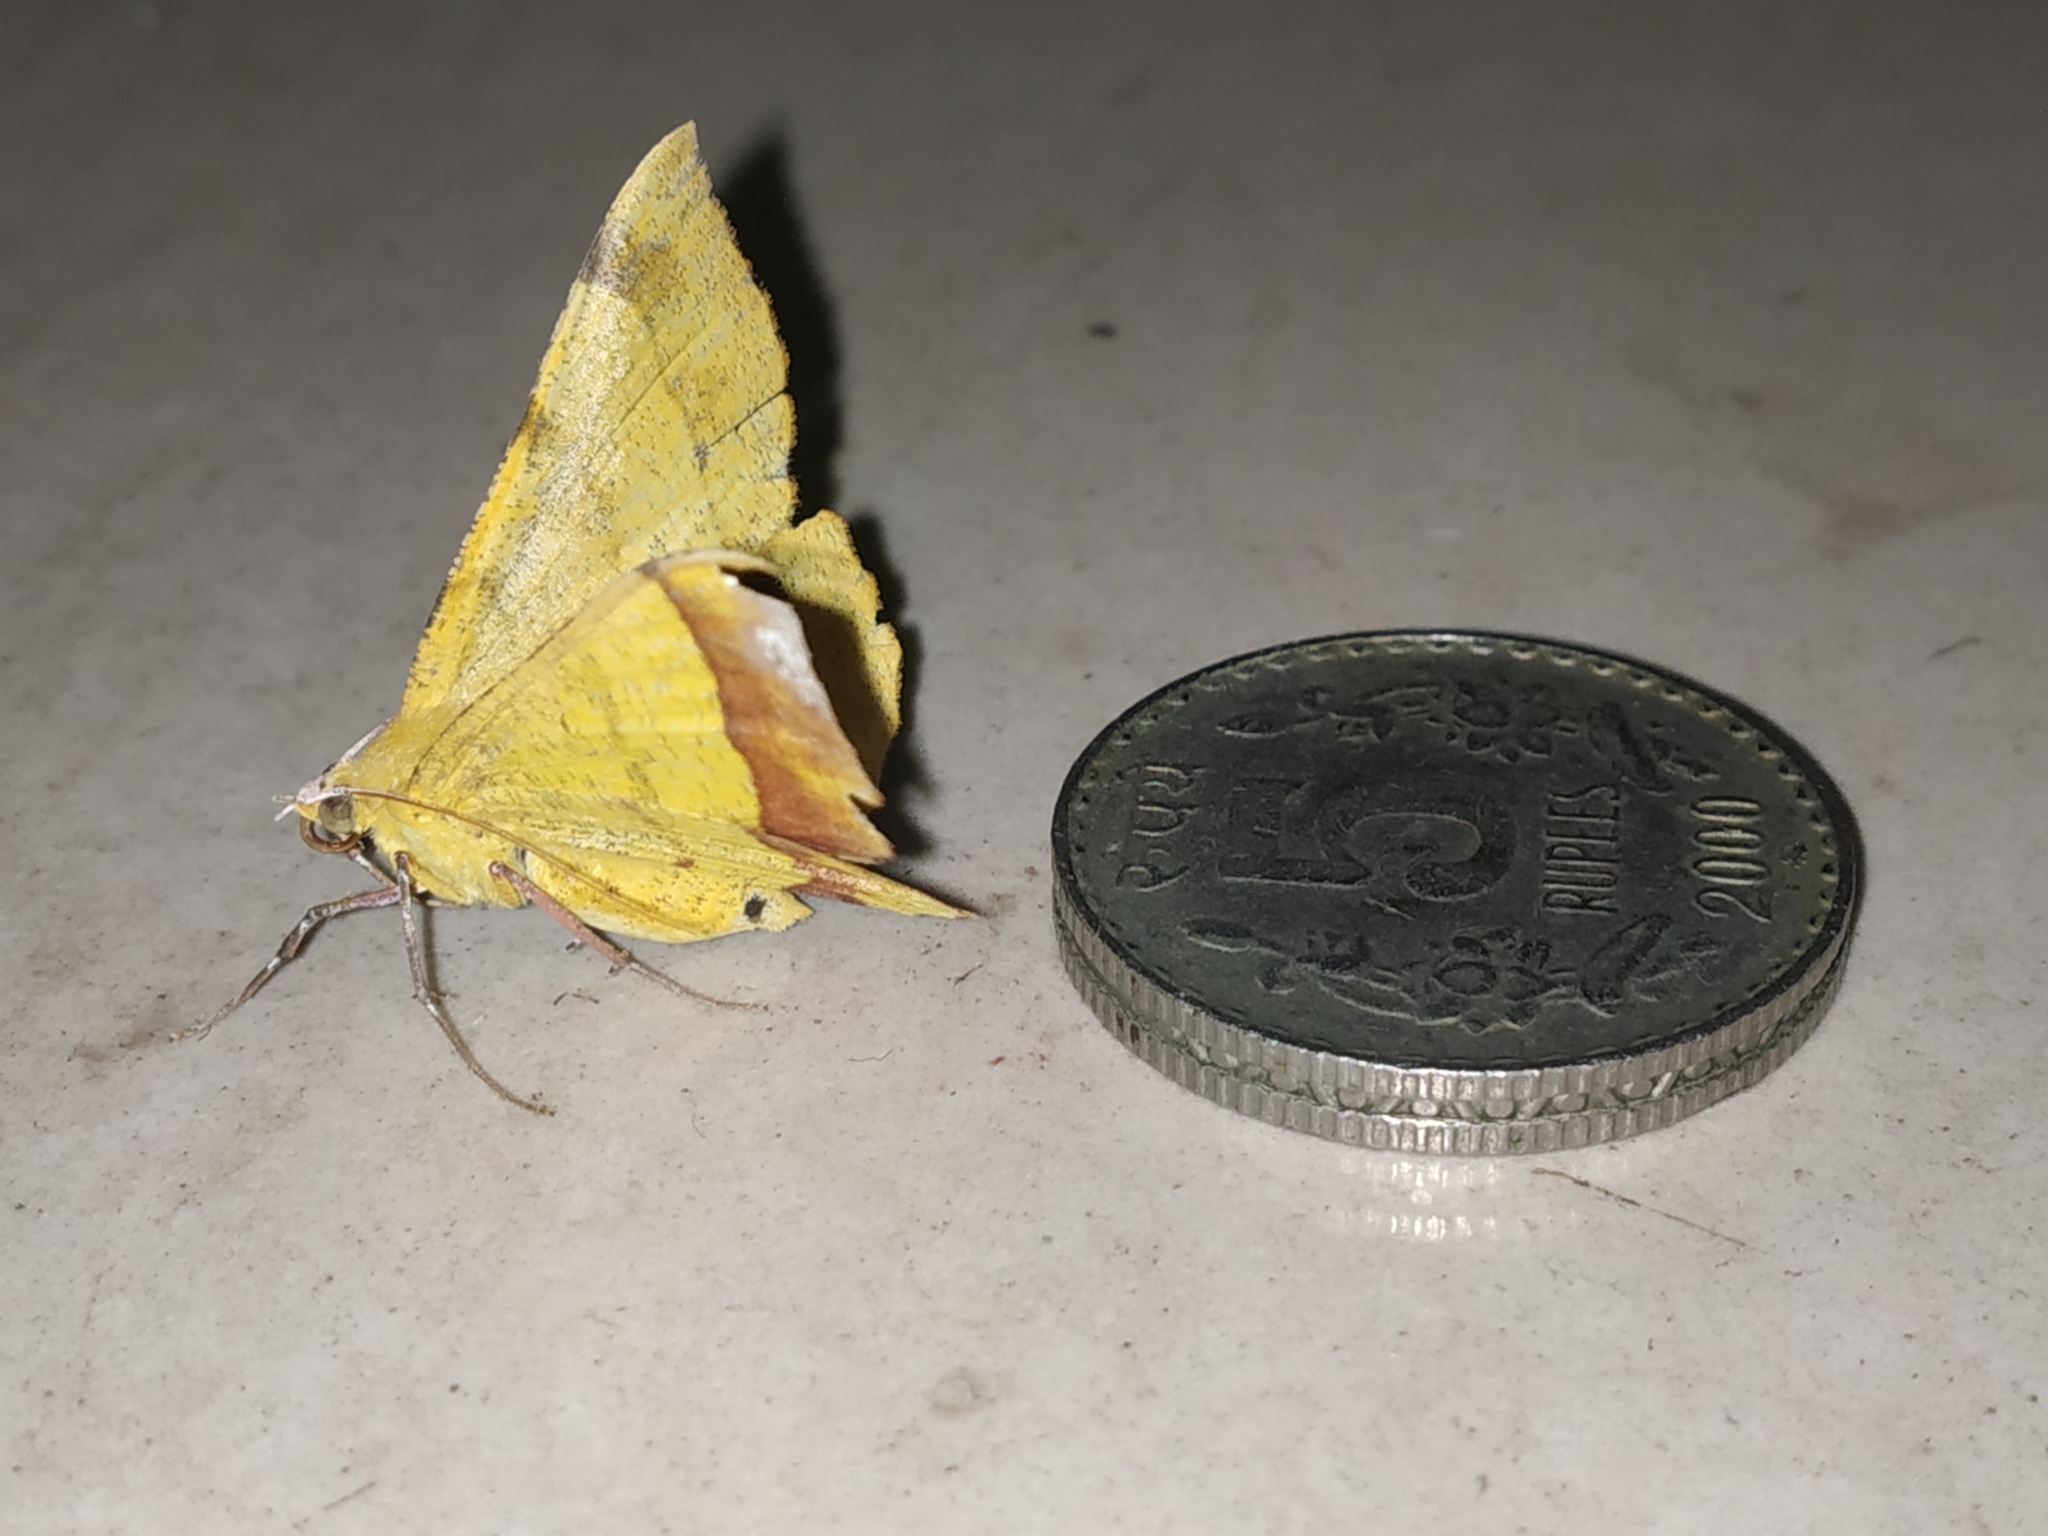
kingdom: Animalia
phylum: Arthropoda
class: Insecta
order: Lepidoptera
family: Geometridae
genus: Hyperythra
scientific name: Hyperythra lutea
